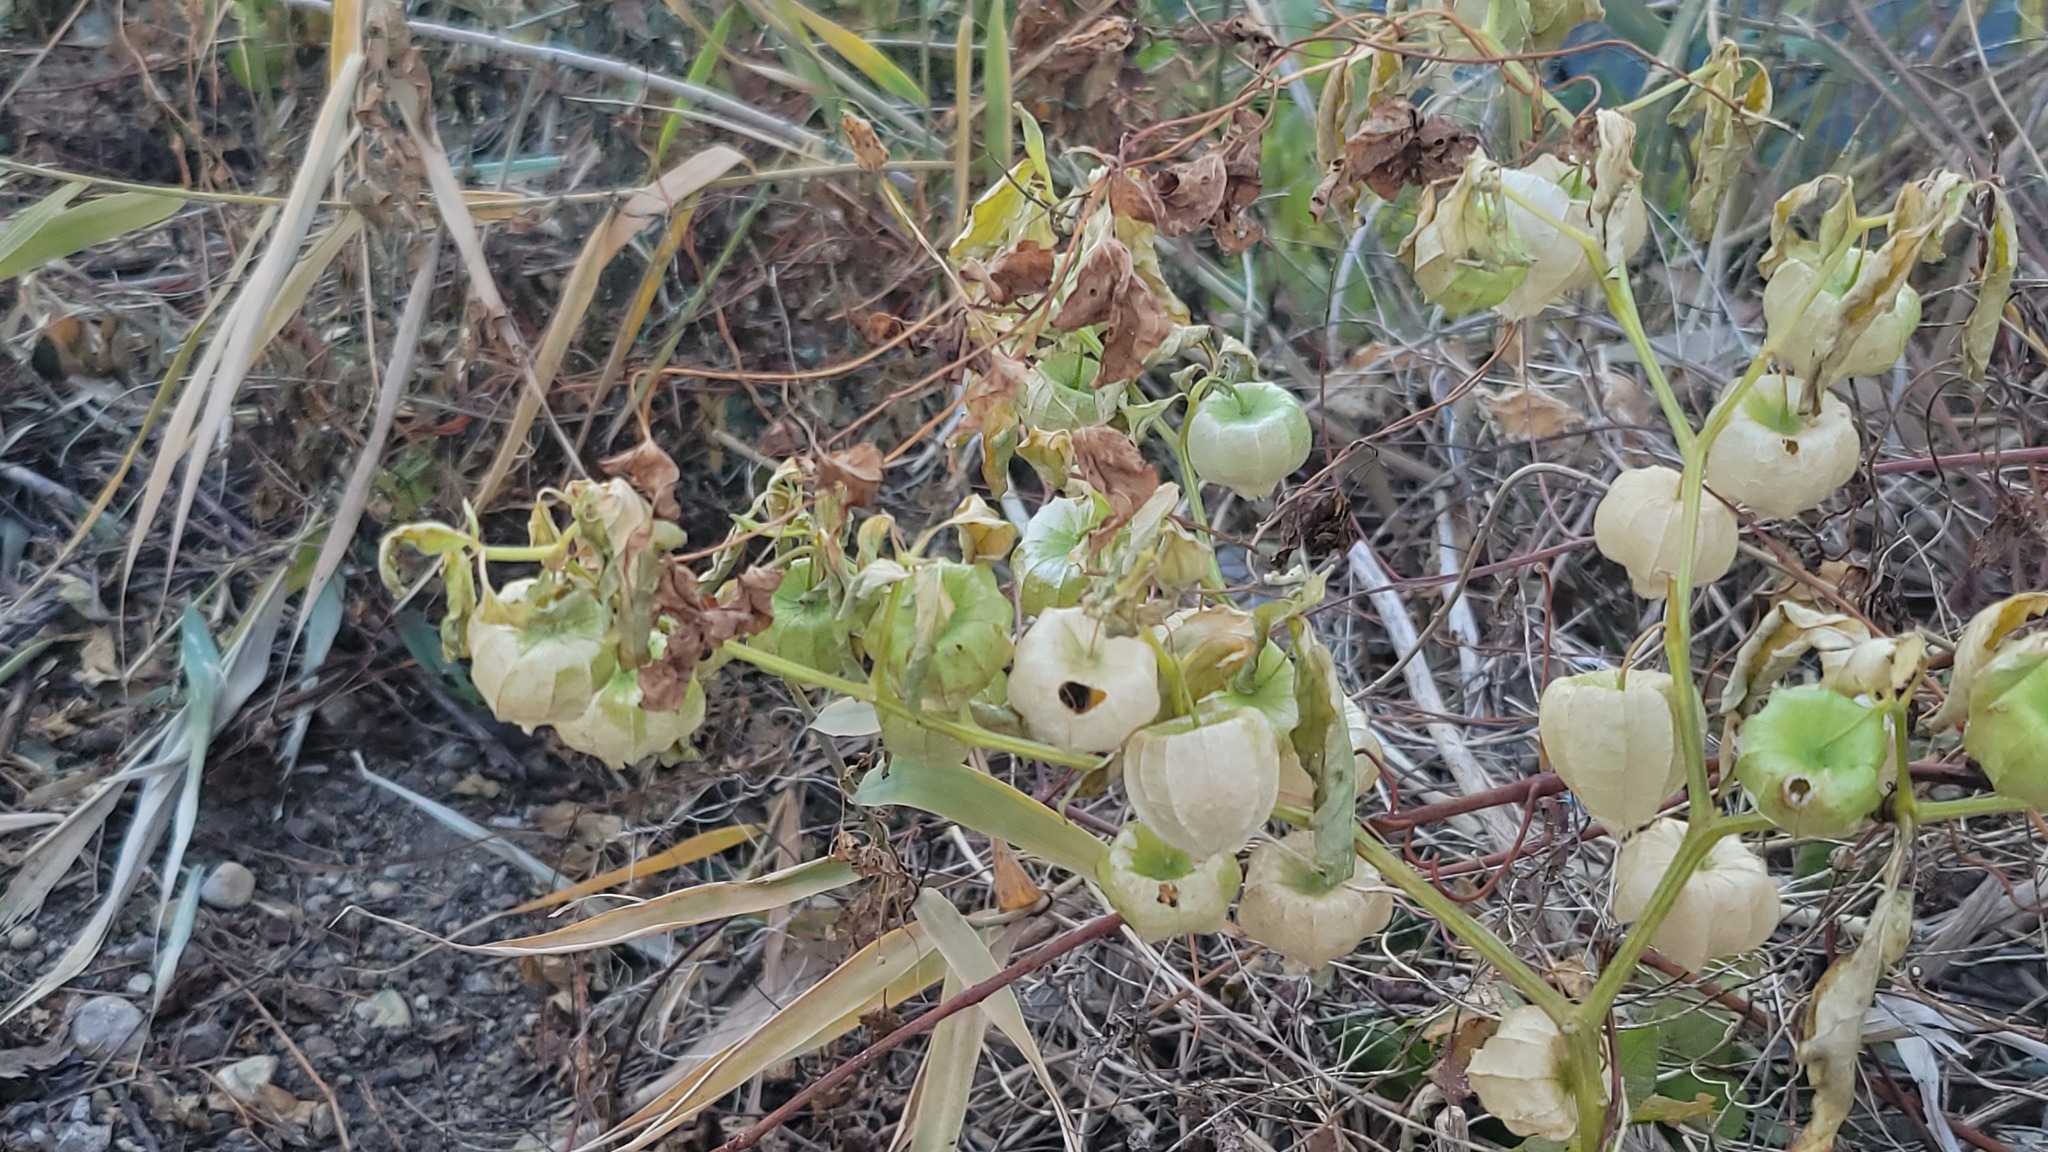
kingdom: Plantae
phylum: Tracheophyta
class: Magnoliopsida
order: Solanales
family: Solanaceae
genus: Physalis
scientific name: Physalis longifolia
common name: Common ground-cherry
